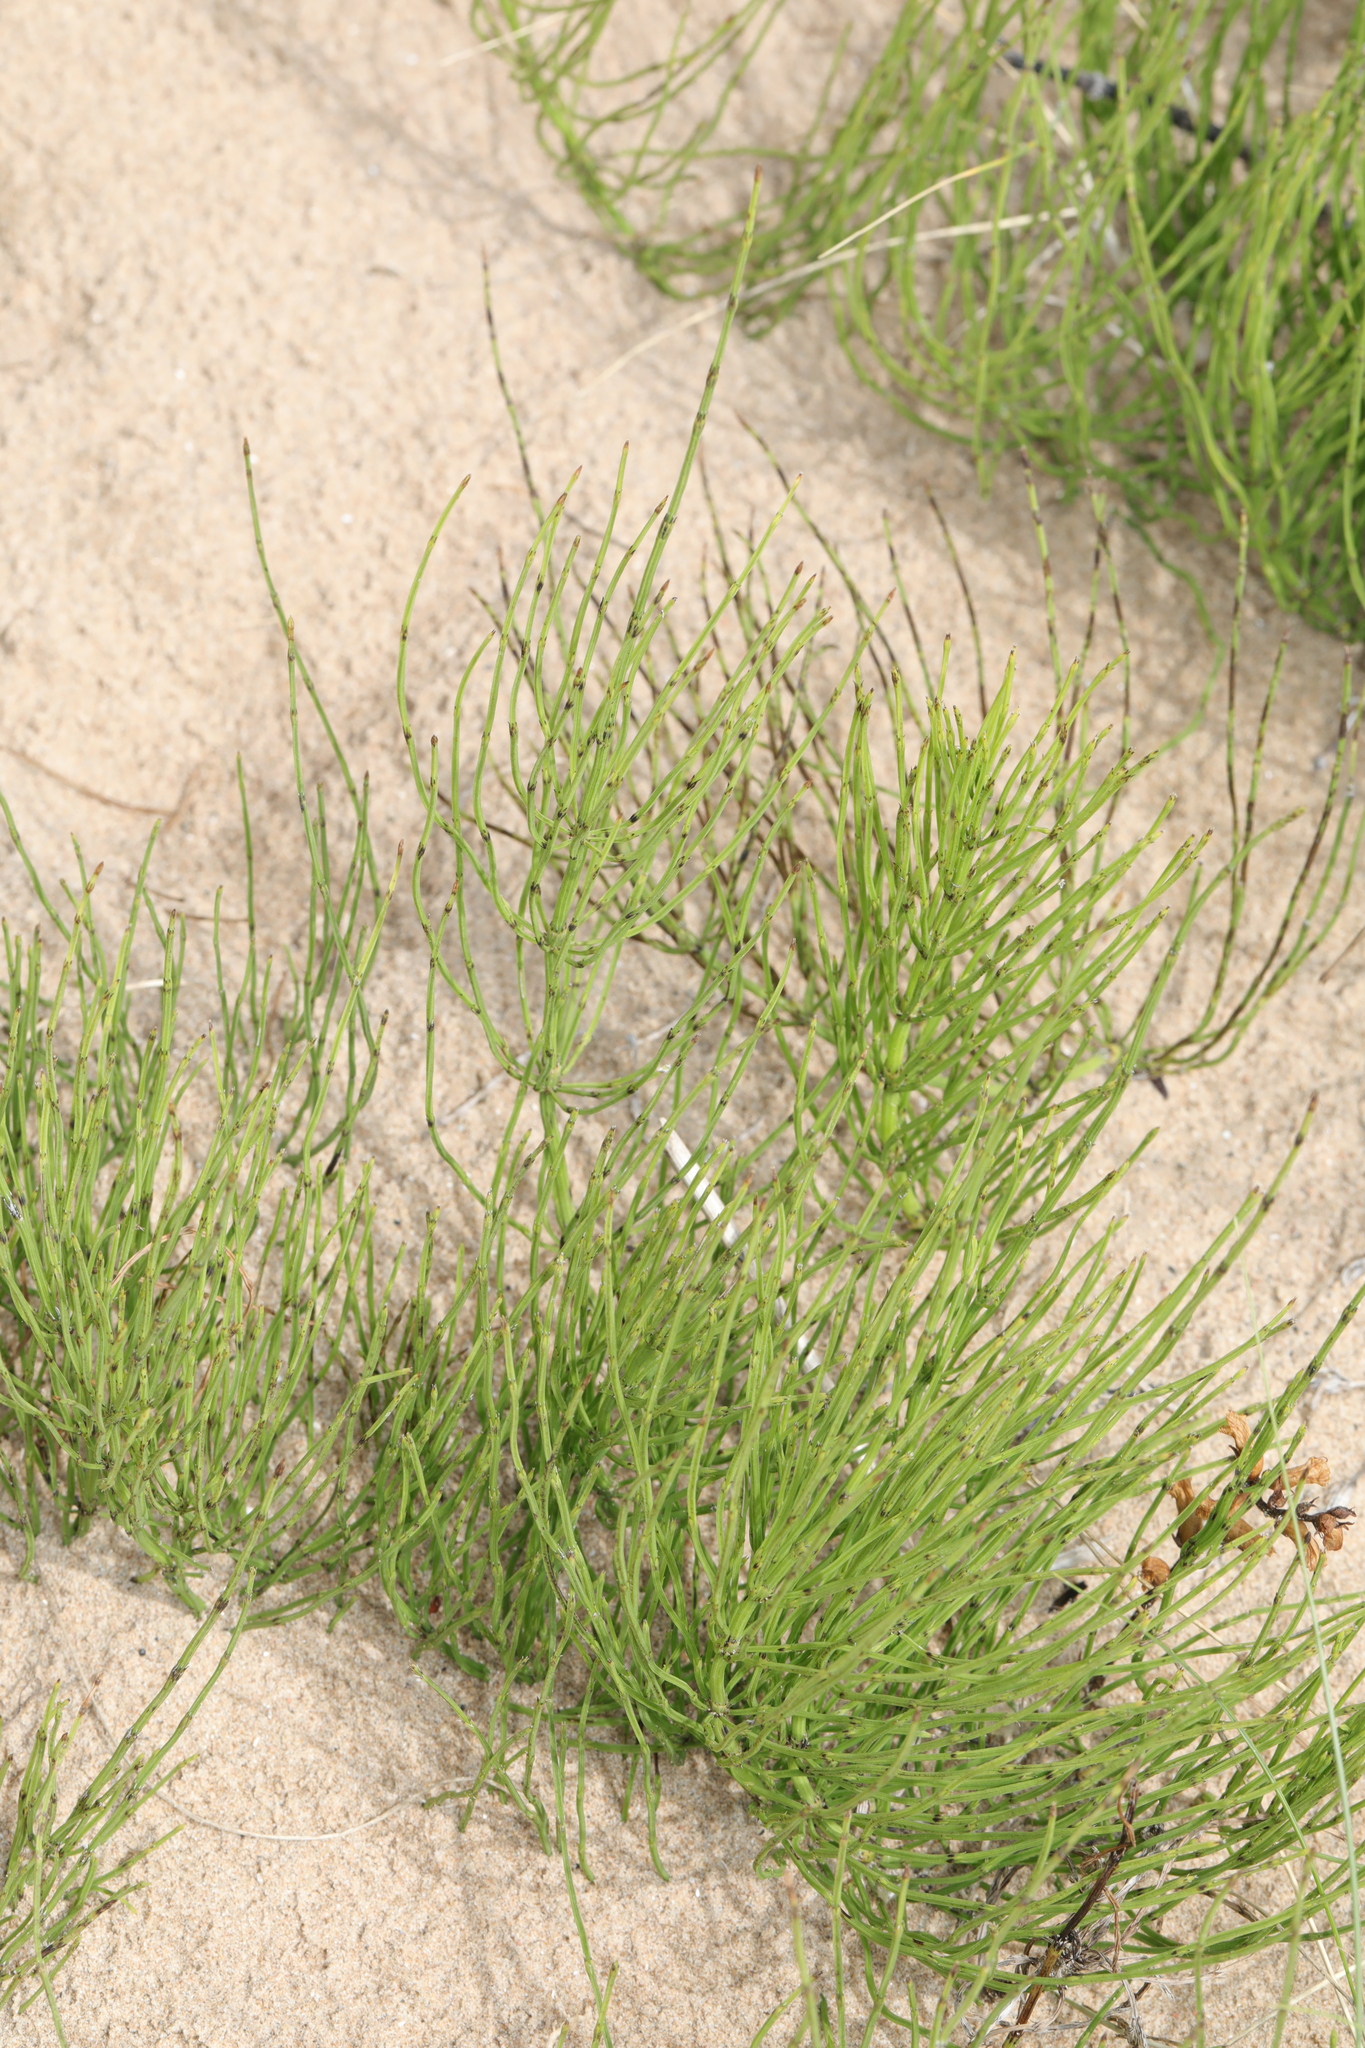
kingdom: Plantae
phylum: Tracheophyta
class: Polypodiopsida
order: Equisetales
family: Equisetaceae
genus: Equisetum
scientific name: Equisetum arvense
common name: Field horsetail
